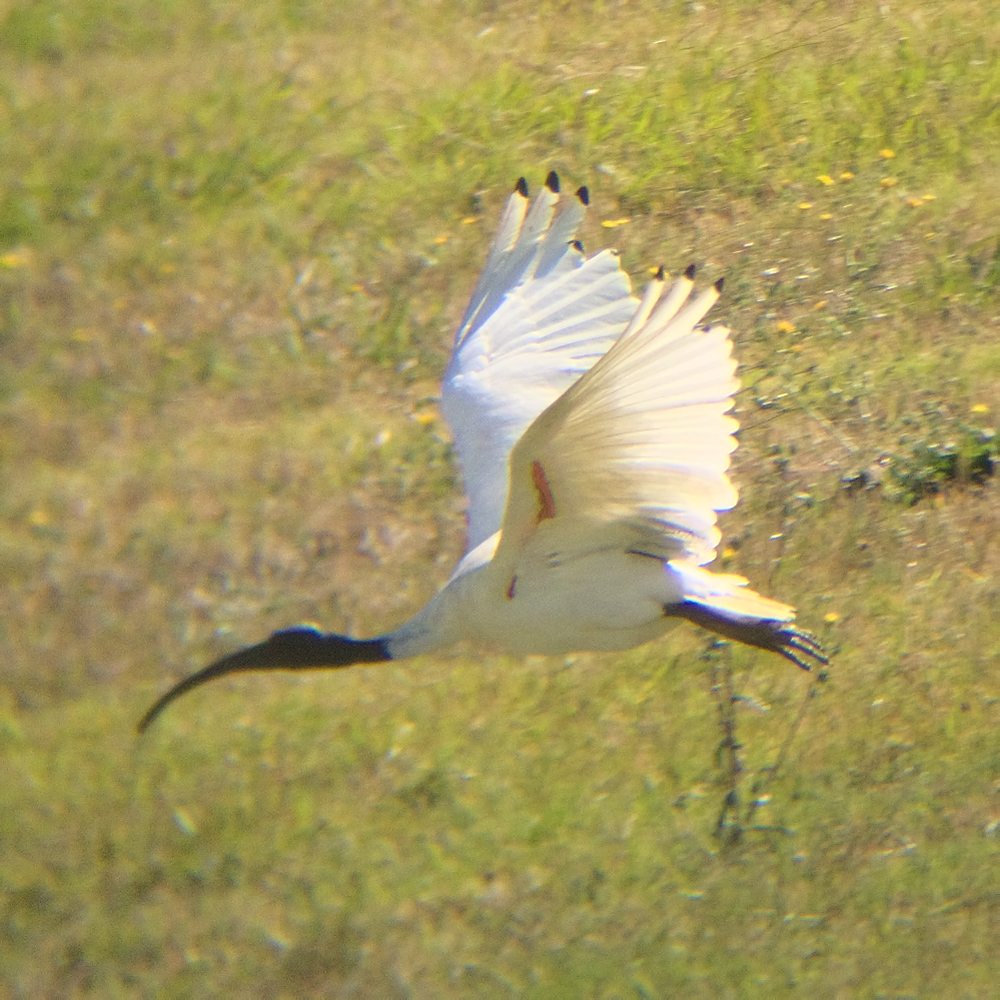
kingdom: Animalia
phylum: Chordata
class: Aves
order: Pelecaniformes
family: Threskiornithidae
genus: Threskiornis
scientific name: Threskiornis molucca
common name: Australian white ibis
